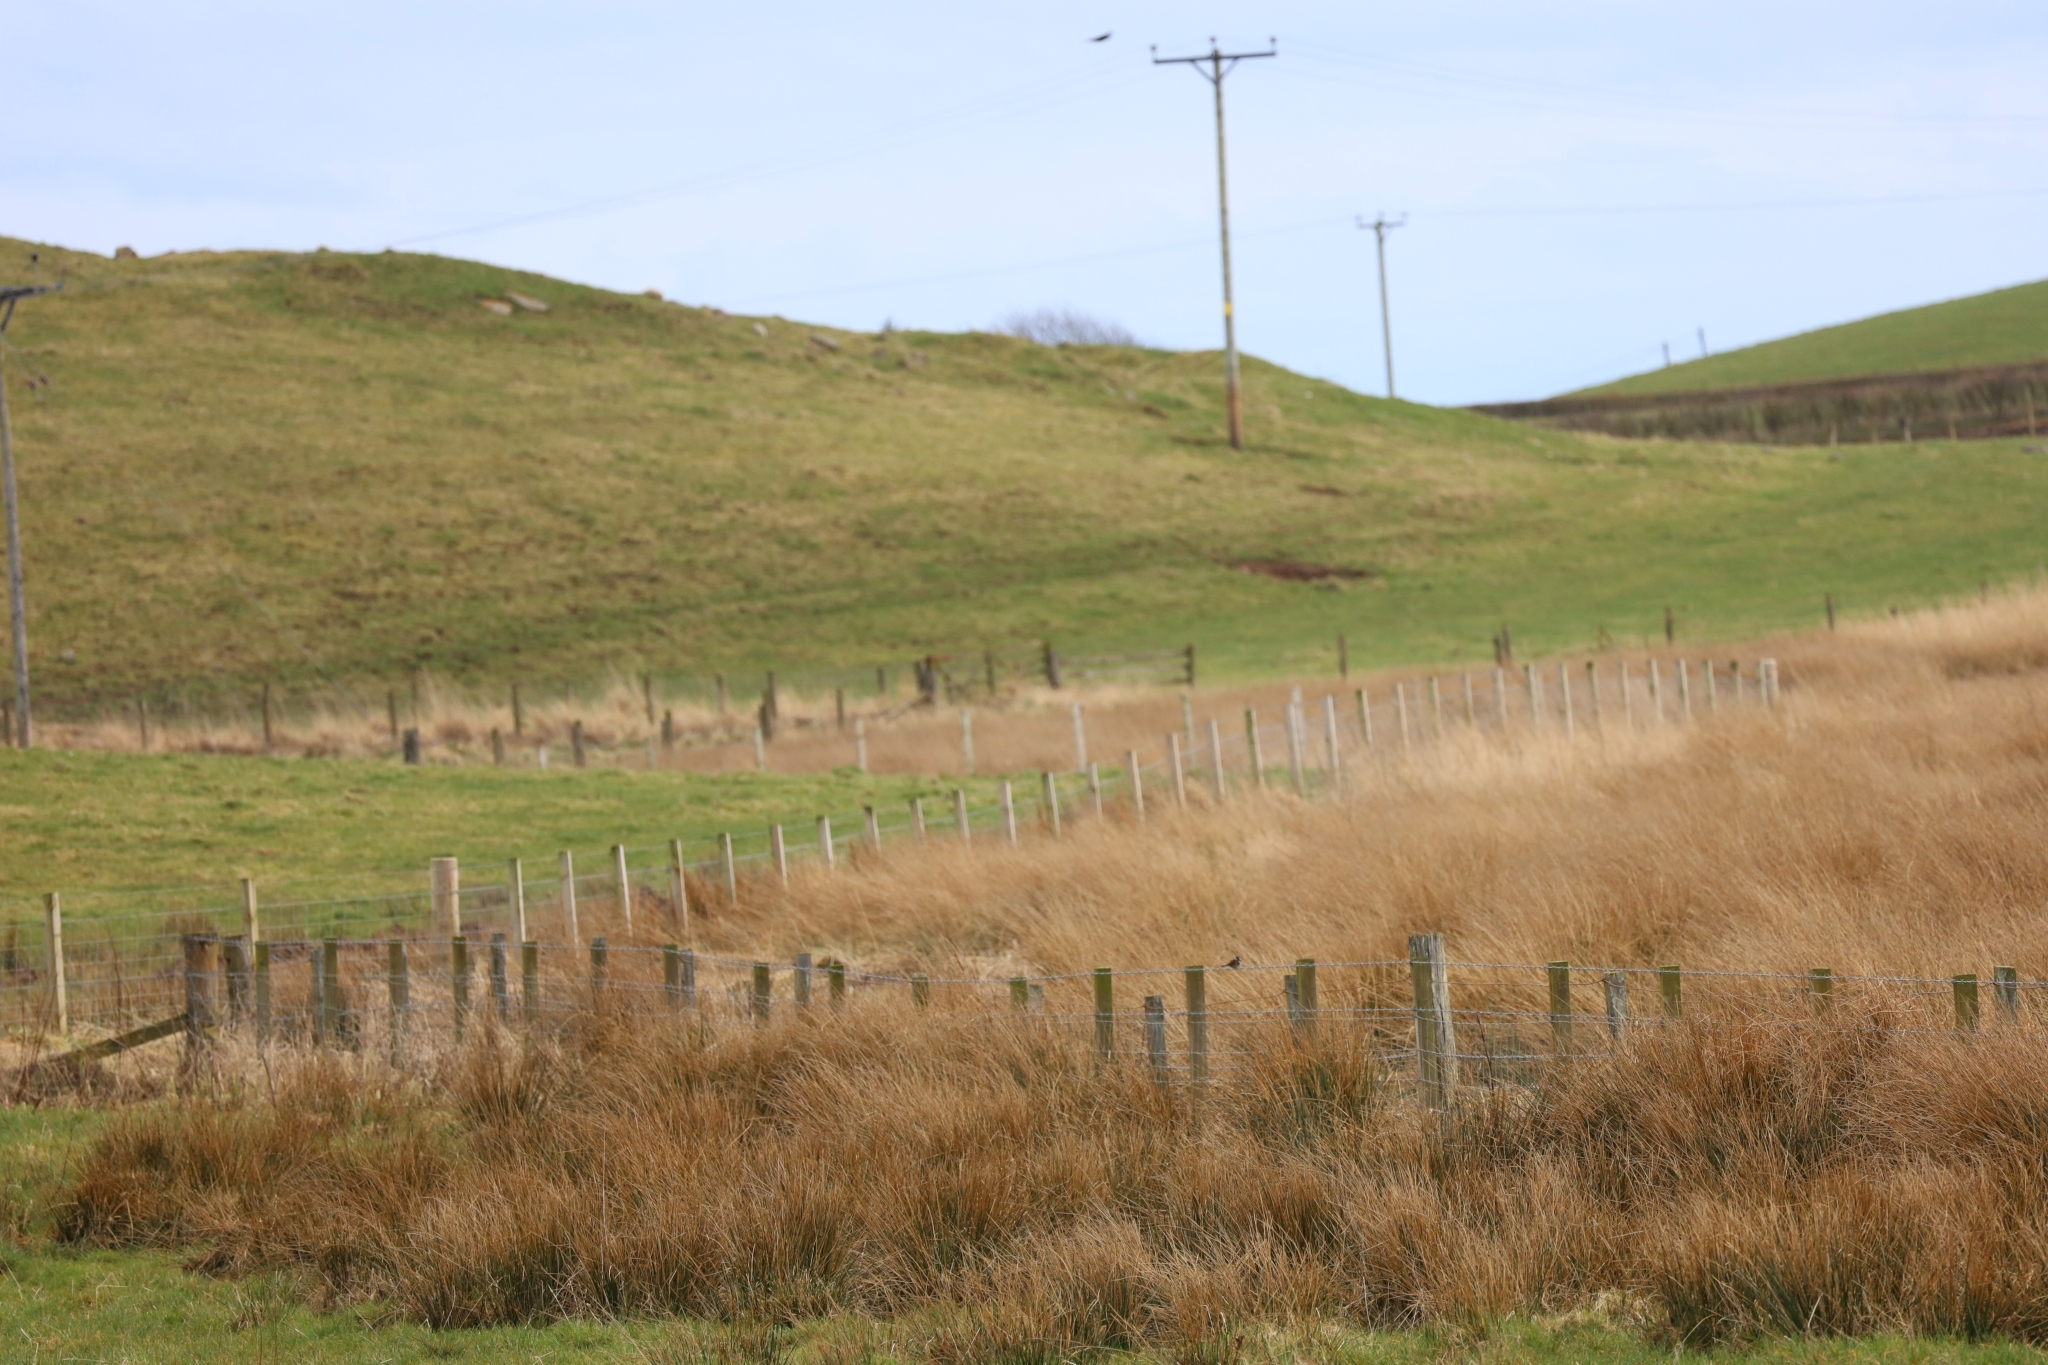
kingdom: Animalia
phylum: Chordata
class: Aves
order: Passeriformes
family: Emberizidae
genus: Emberiza
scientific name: Emberiza schoeniclus
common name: Reed bunting
